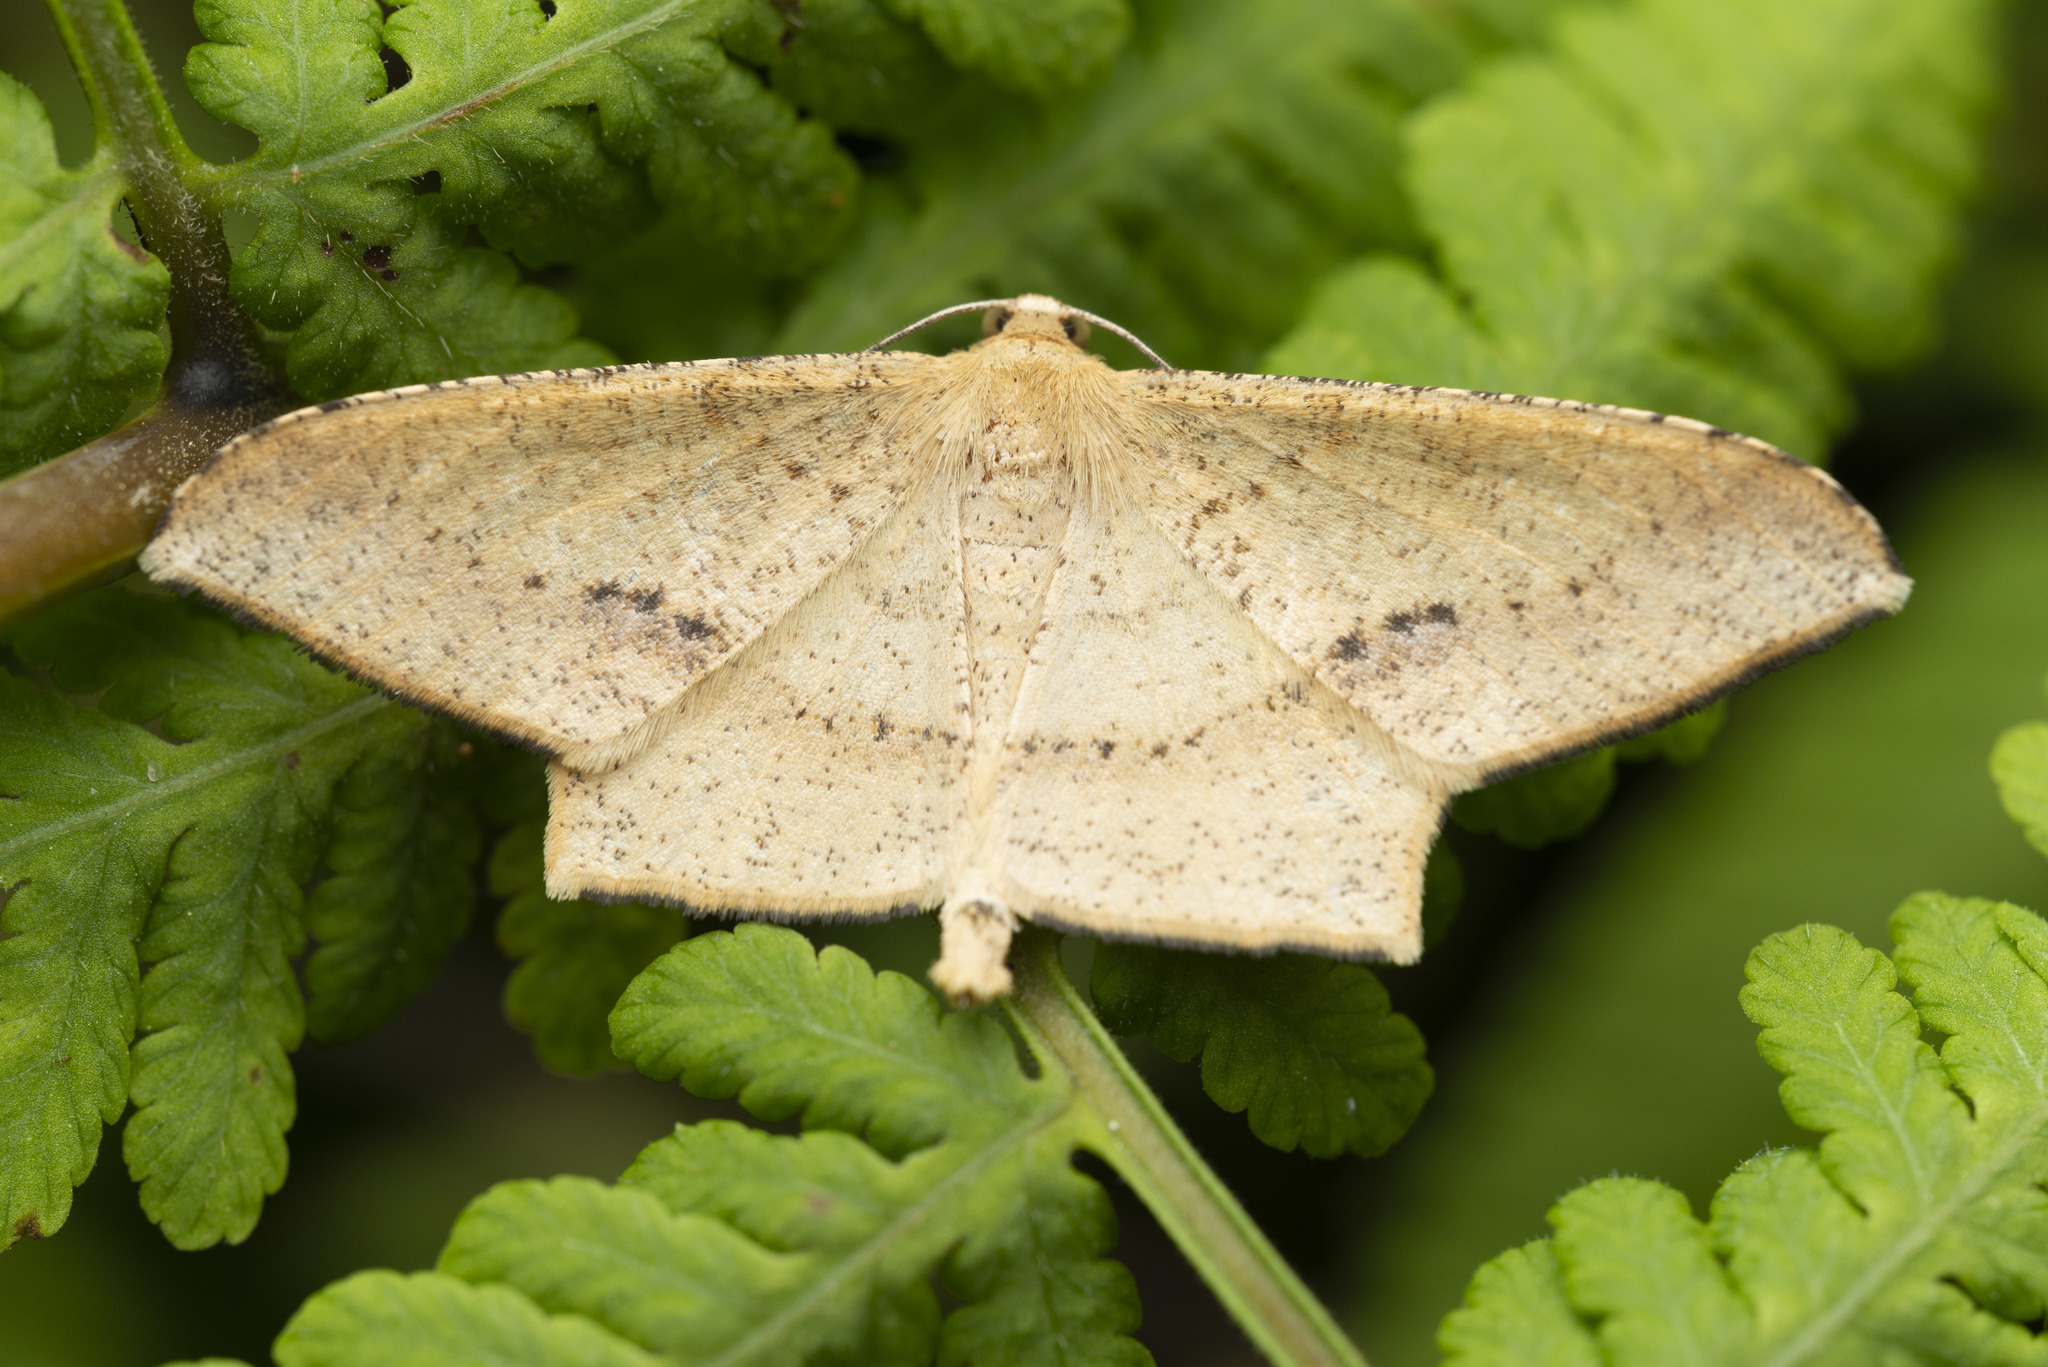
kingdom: Animalia
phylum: Arthropoda
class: Insecta
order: Lepidoptera
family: Geometridae
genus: Krananda
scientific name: Krananda falcata
